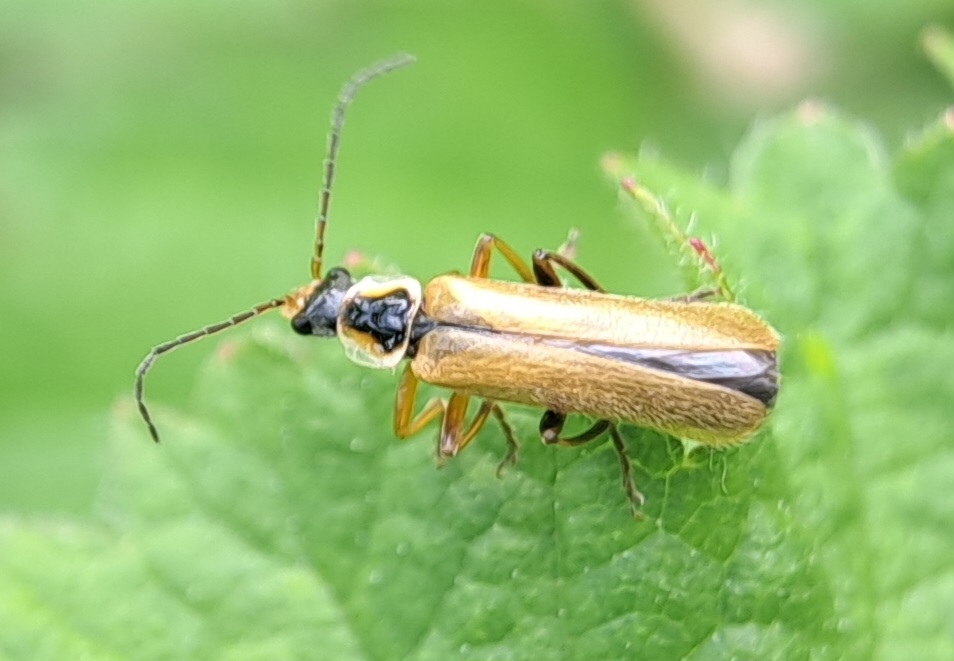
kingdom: Animalia
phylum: Arthropoda
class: Insecta
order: Coleoptera
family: Cantharidae
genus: Cantharis
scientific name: Cantharis decipiens
